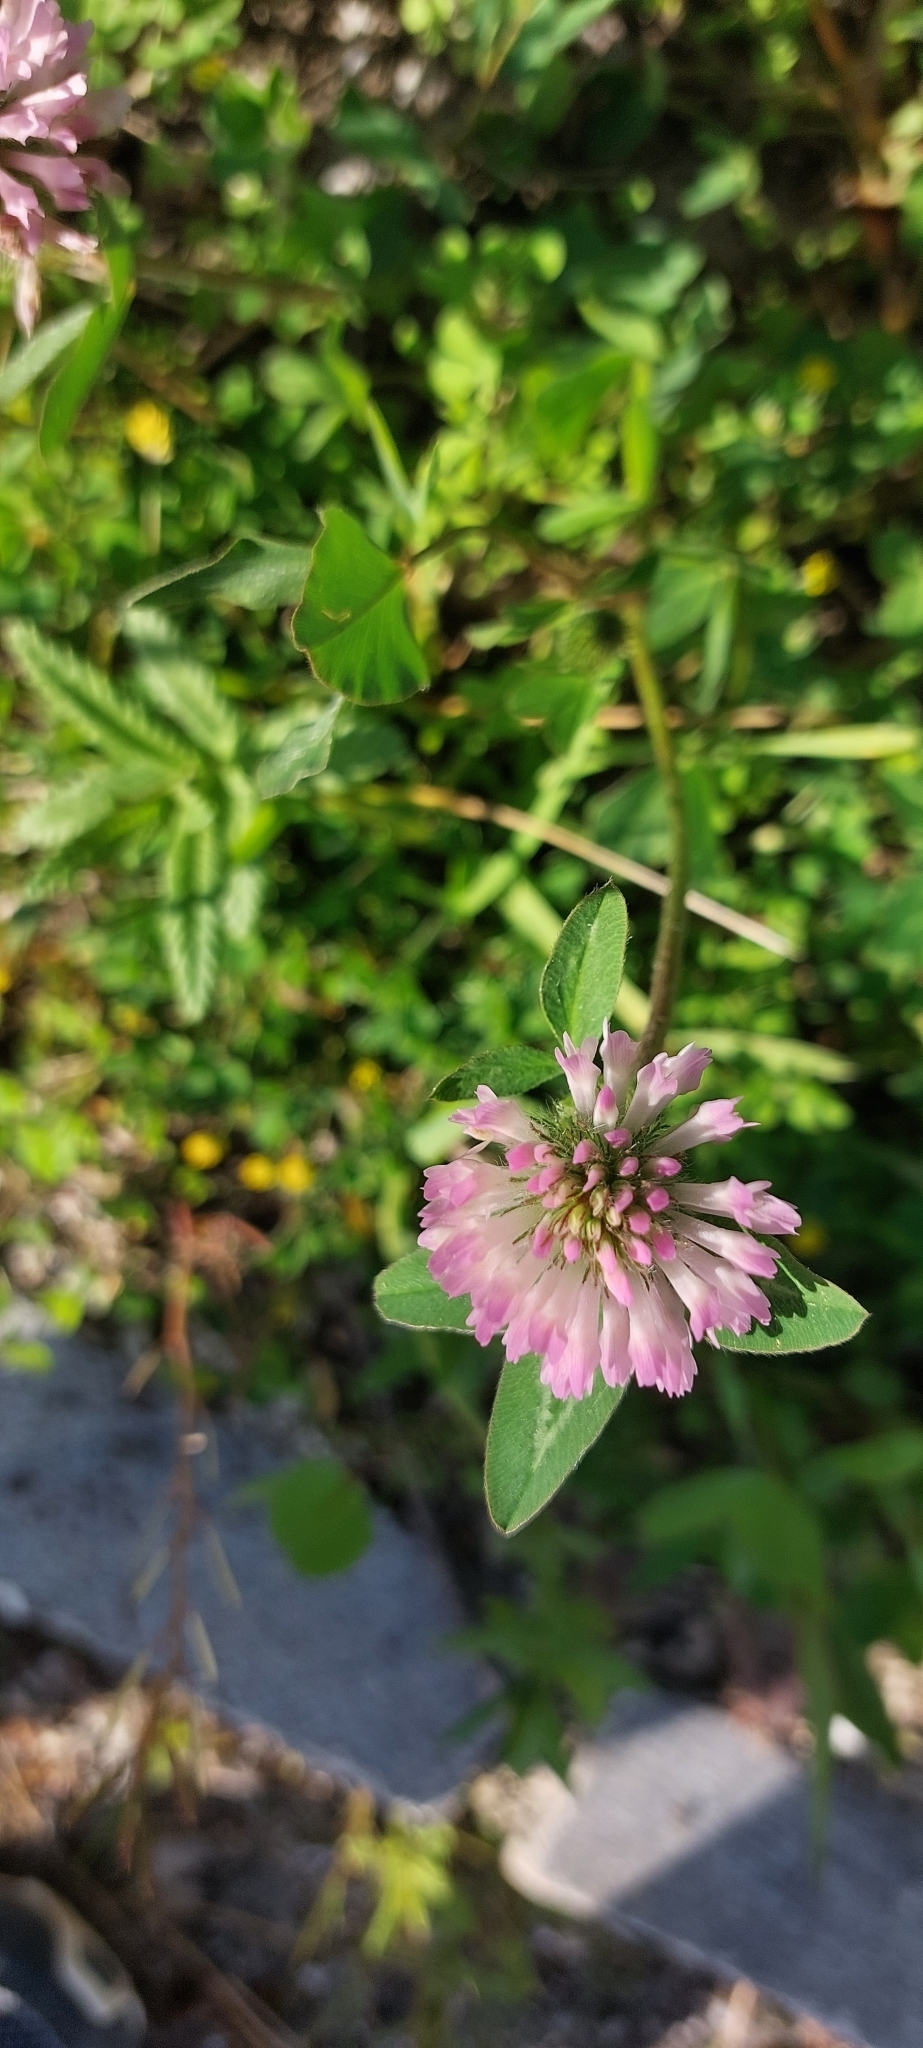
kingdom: Plantae
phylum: Tracheophyta
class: Magnoliopsida
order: Fabales
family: Fabaceae
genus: Trifolium
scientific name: Trifolium pratense
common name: Red clover
